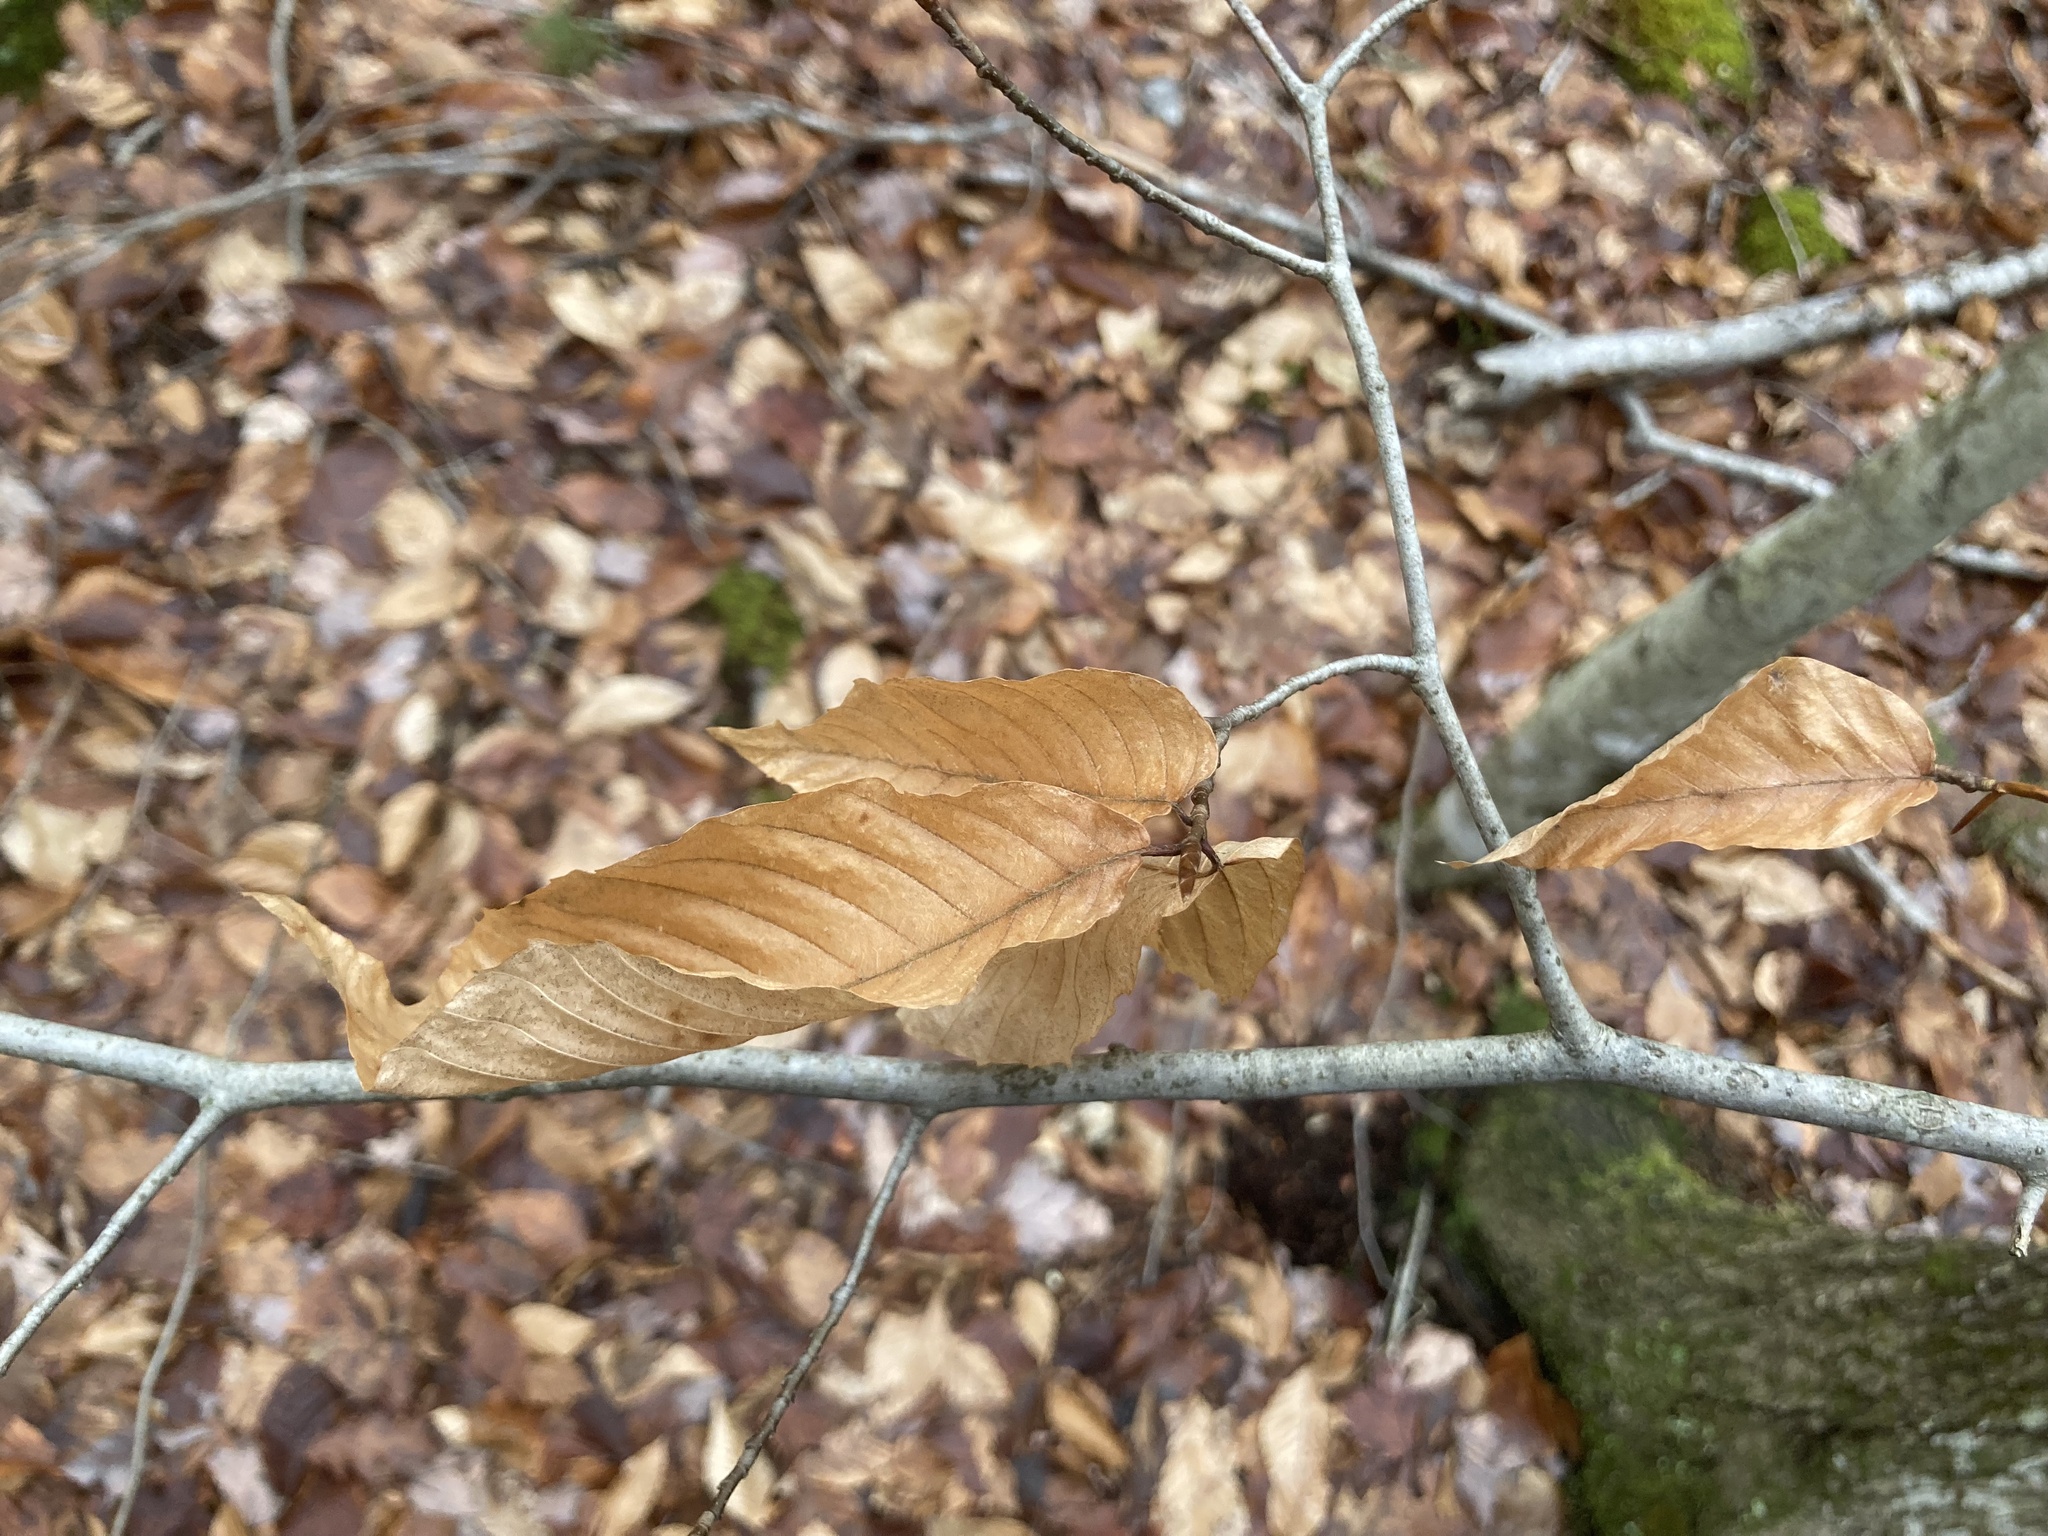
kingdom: Plantae
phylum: Tracheophyta
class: Magnoliopsida
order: Fagales
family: Fagaceae
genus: Fagus
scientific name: Fagus grandifolia
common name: American beech
